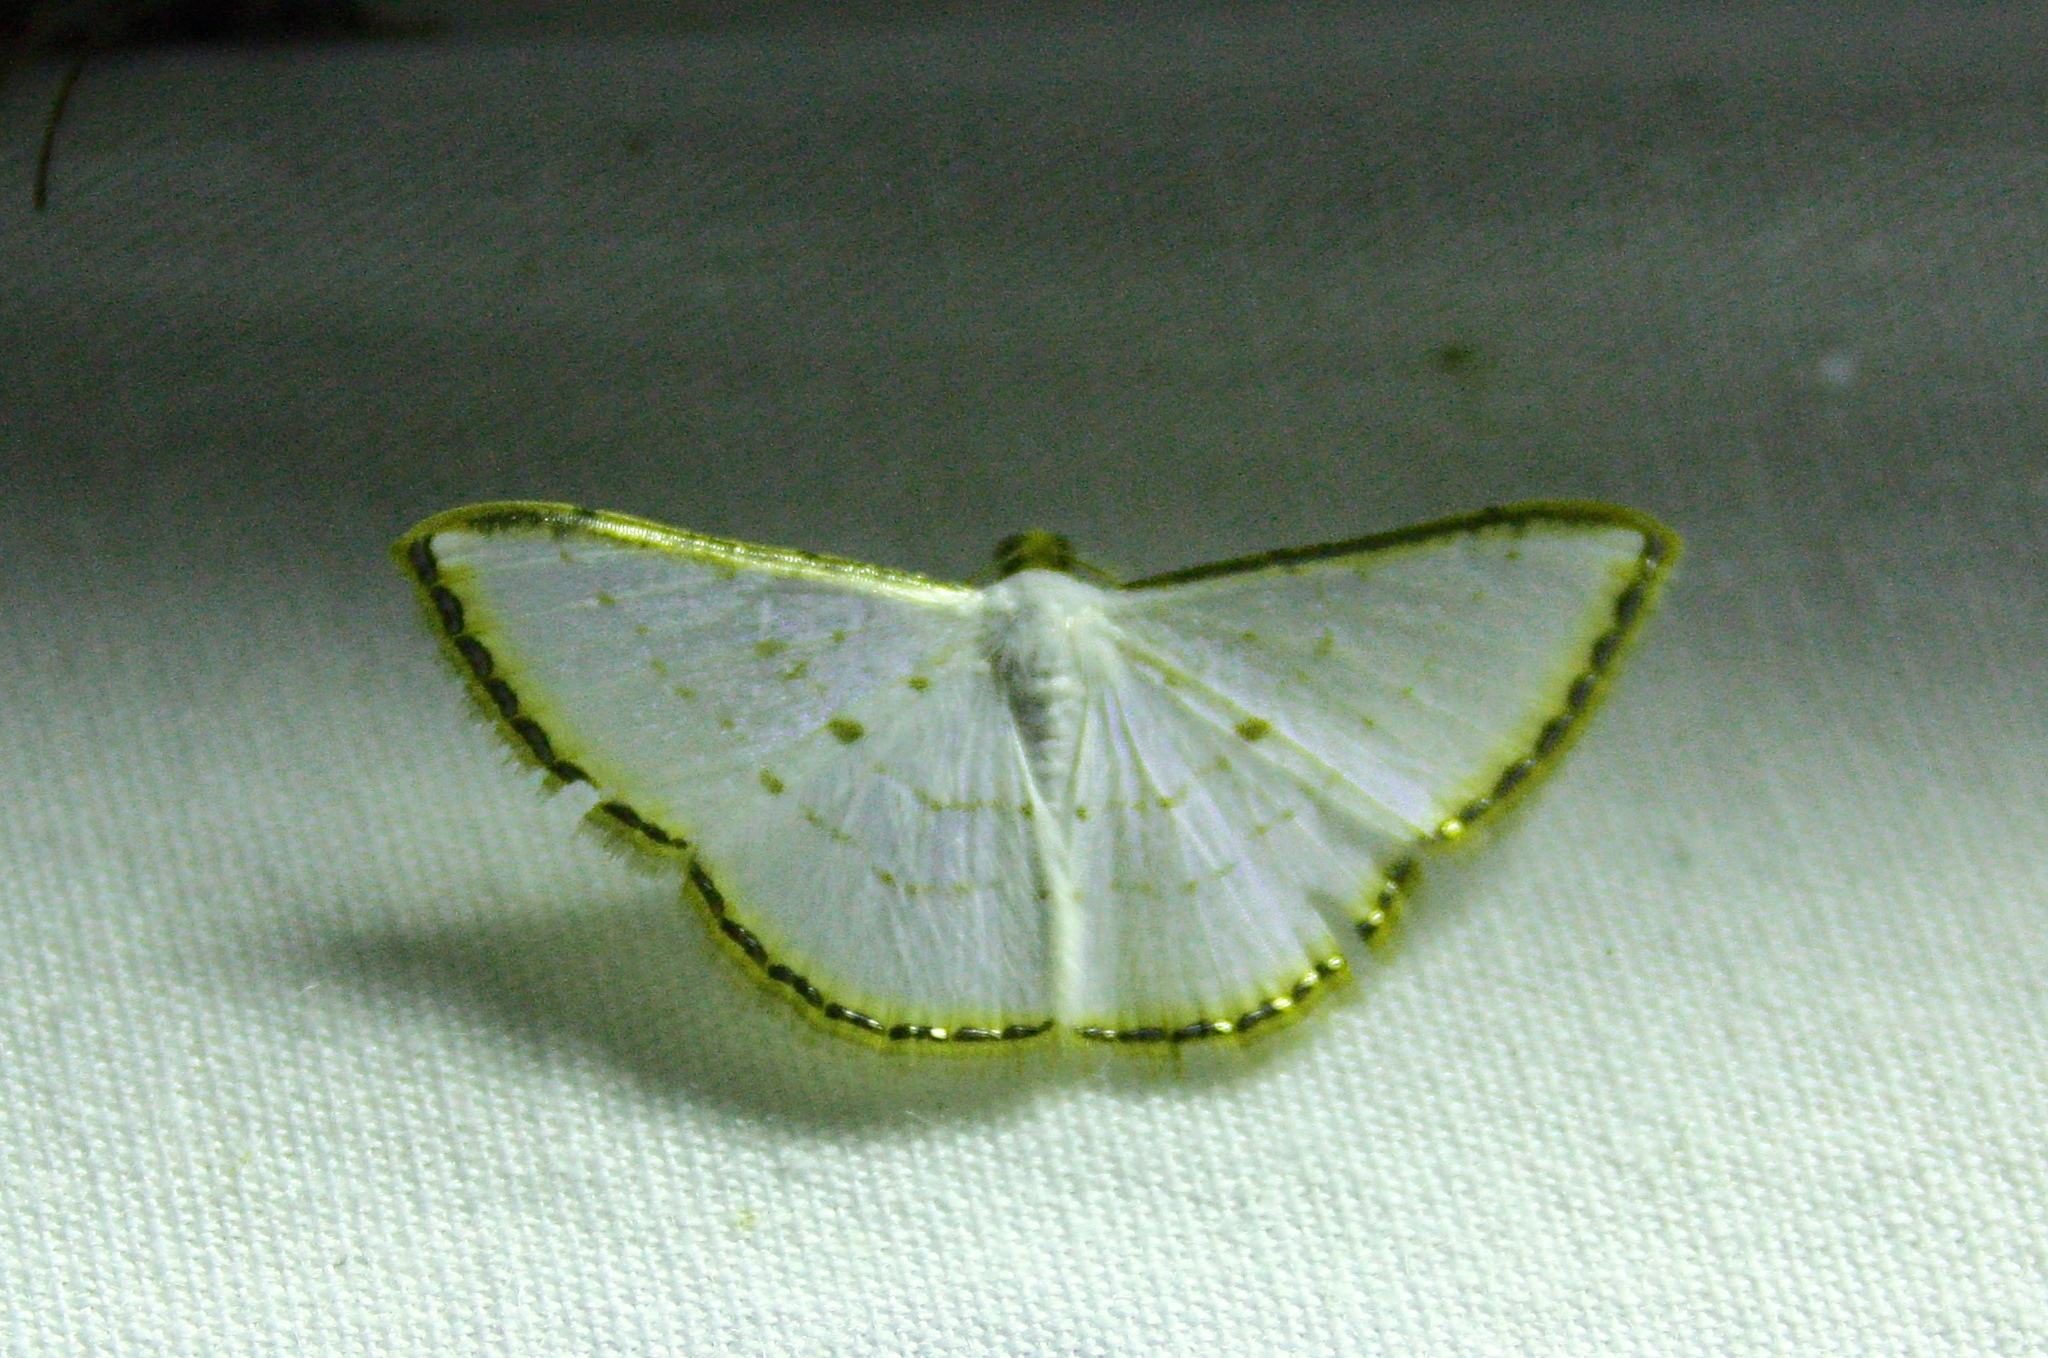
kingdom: Animalia
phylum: Arthropoda
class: Insecta
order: Lepidoptera
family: Geometridae
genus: Leuciris
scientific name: Leuciris fimbriaria
